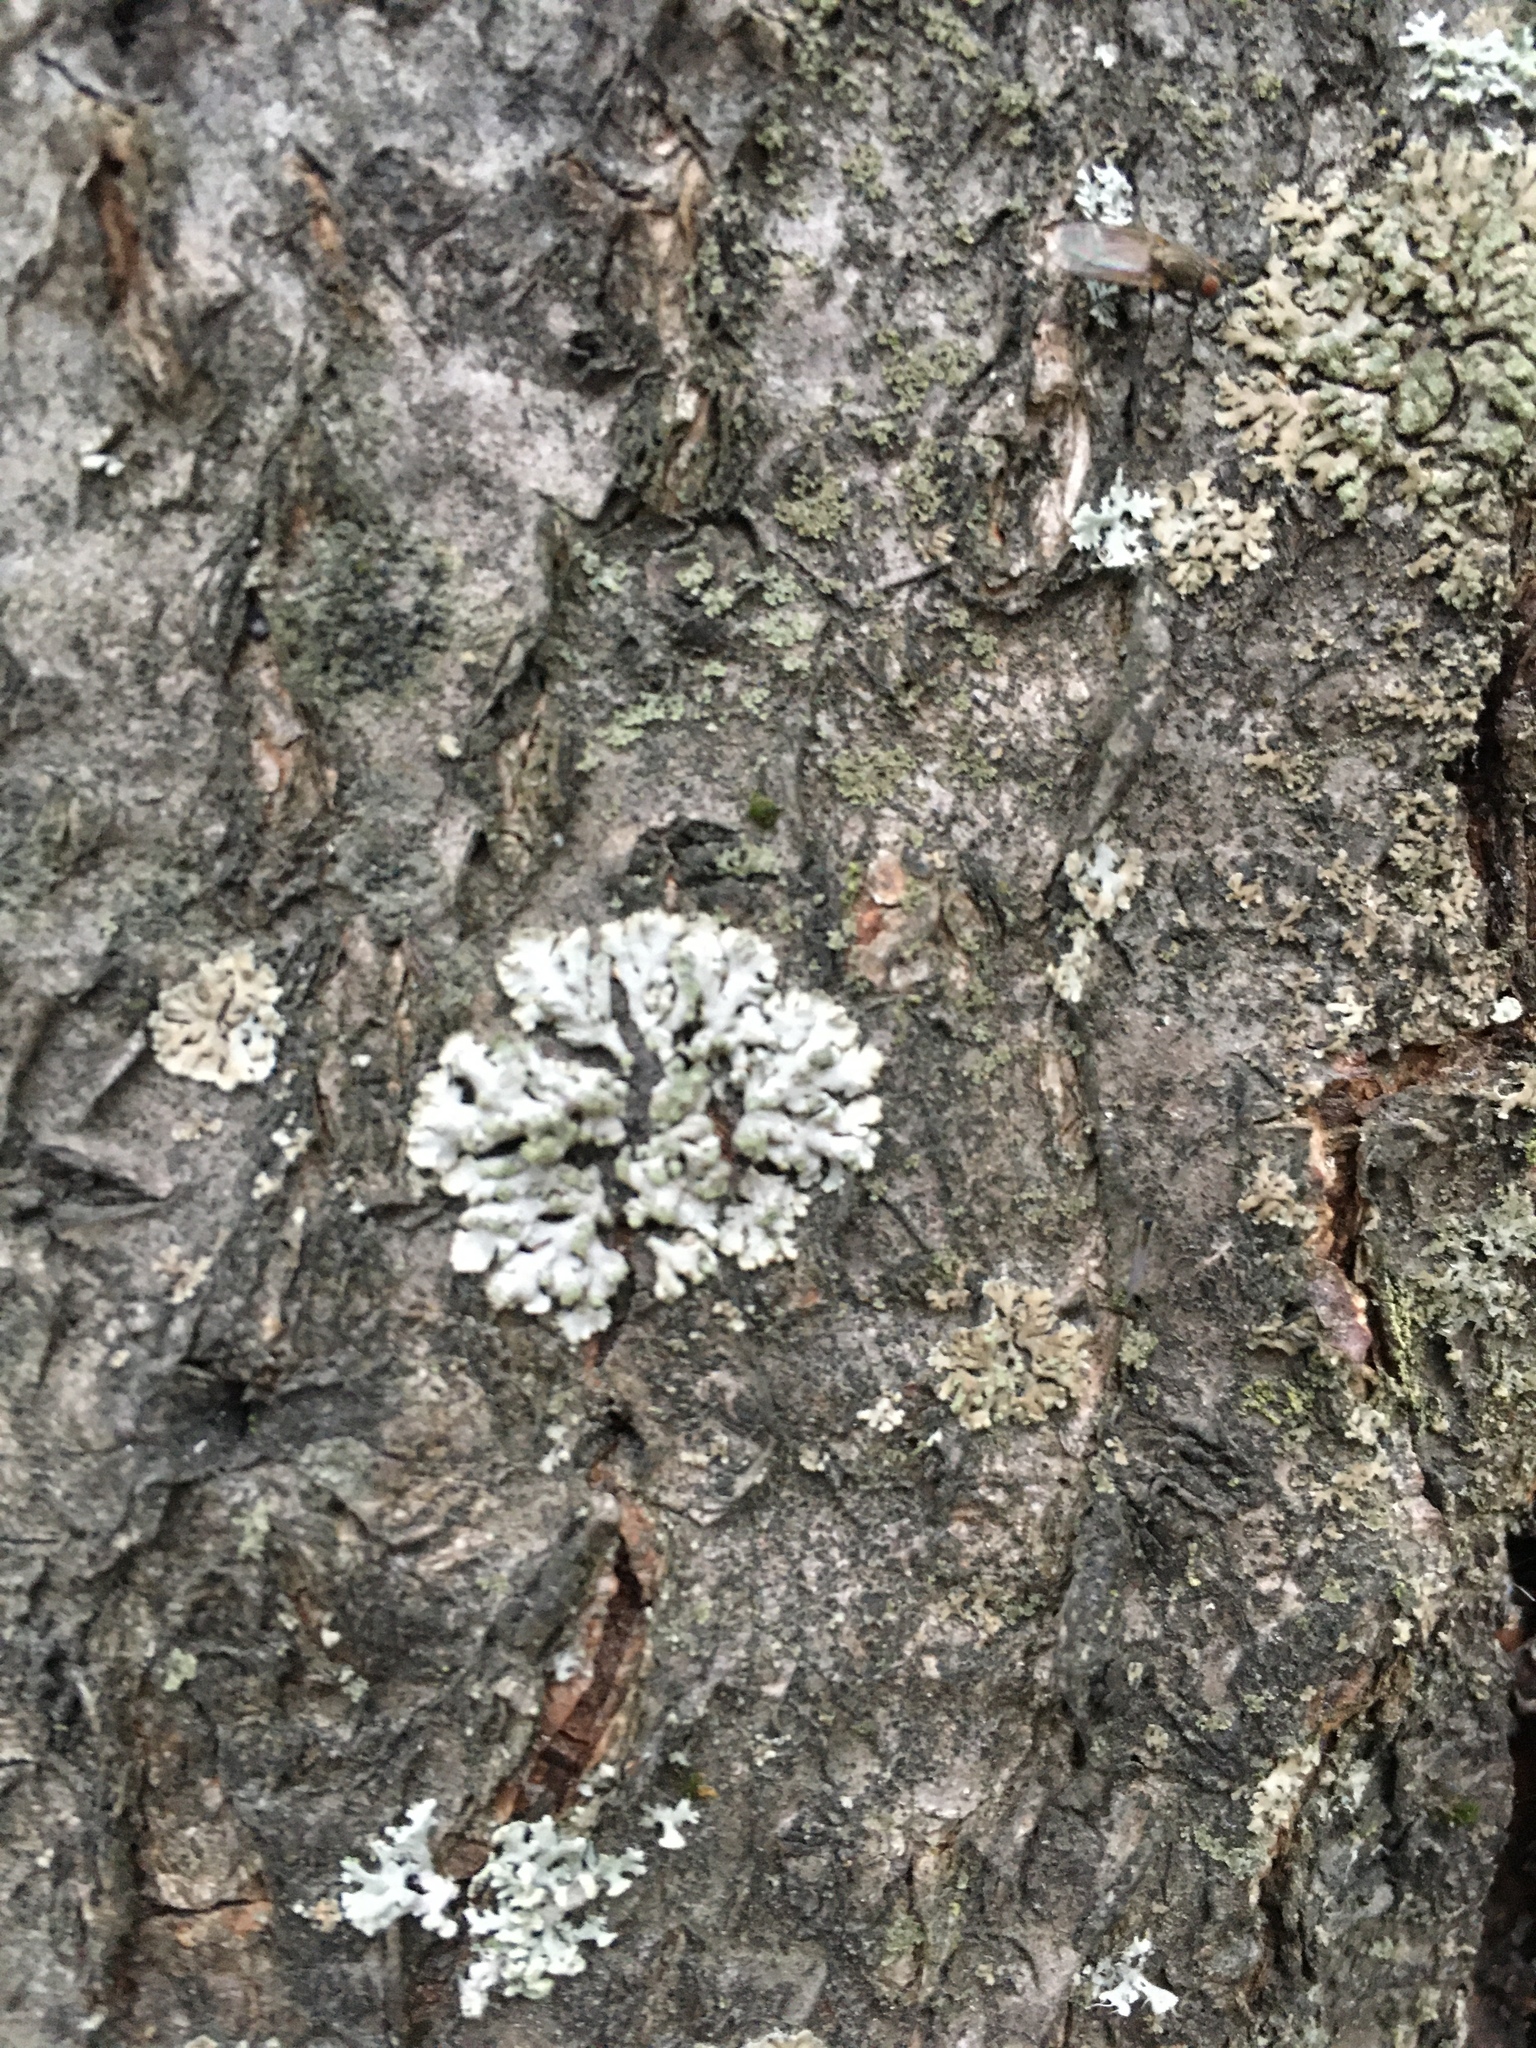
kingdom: Fungi
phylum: Ascomycota
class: Lecanoromycetes
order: Caliciales
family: Physciaceae
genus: Phaeophyscia
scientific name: Phaeophyscia orbicularis
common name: Mealy shadow lichen
